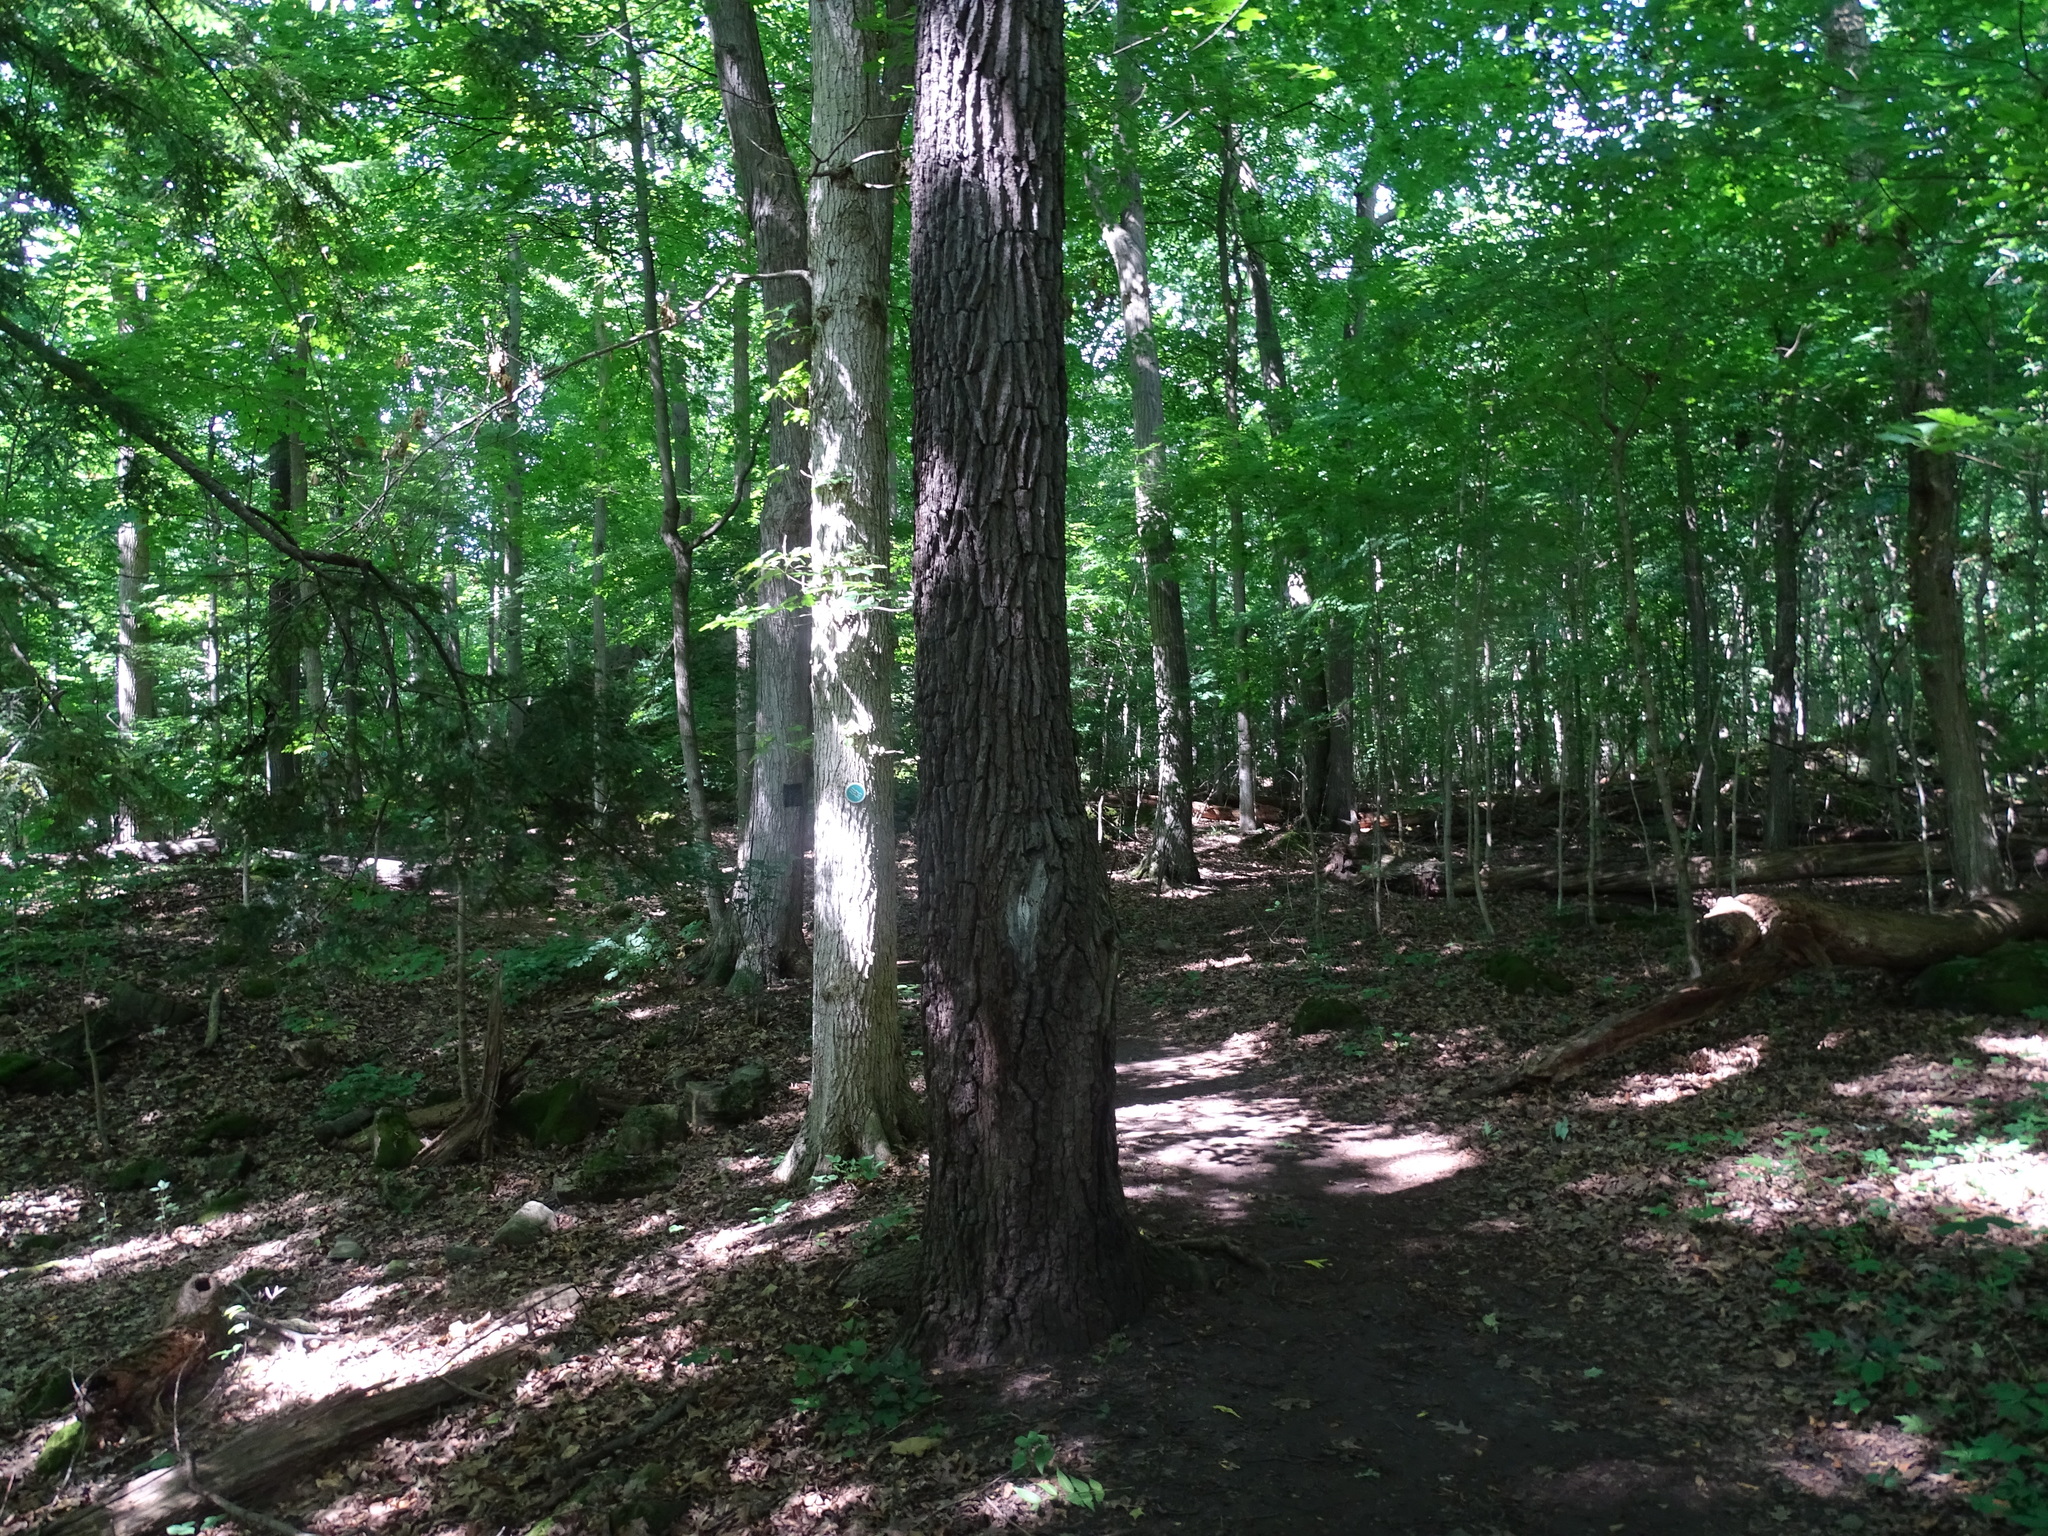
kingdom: Plantae
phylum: Tracheophyta
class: Magnoliopsida
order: Fagales
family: Juglandaceae
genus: Juglans
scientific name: Juglans nigra
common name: Black walnut
